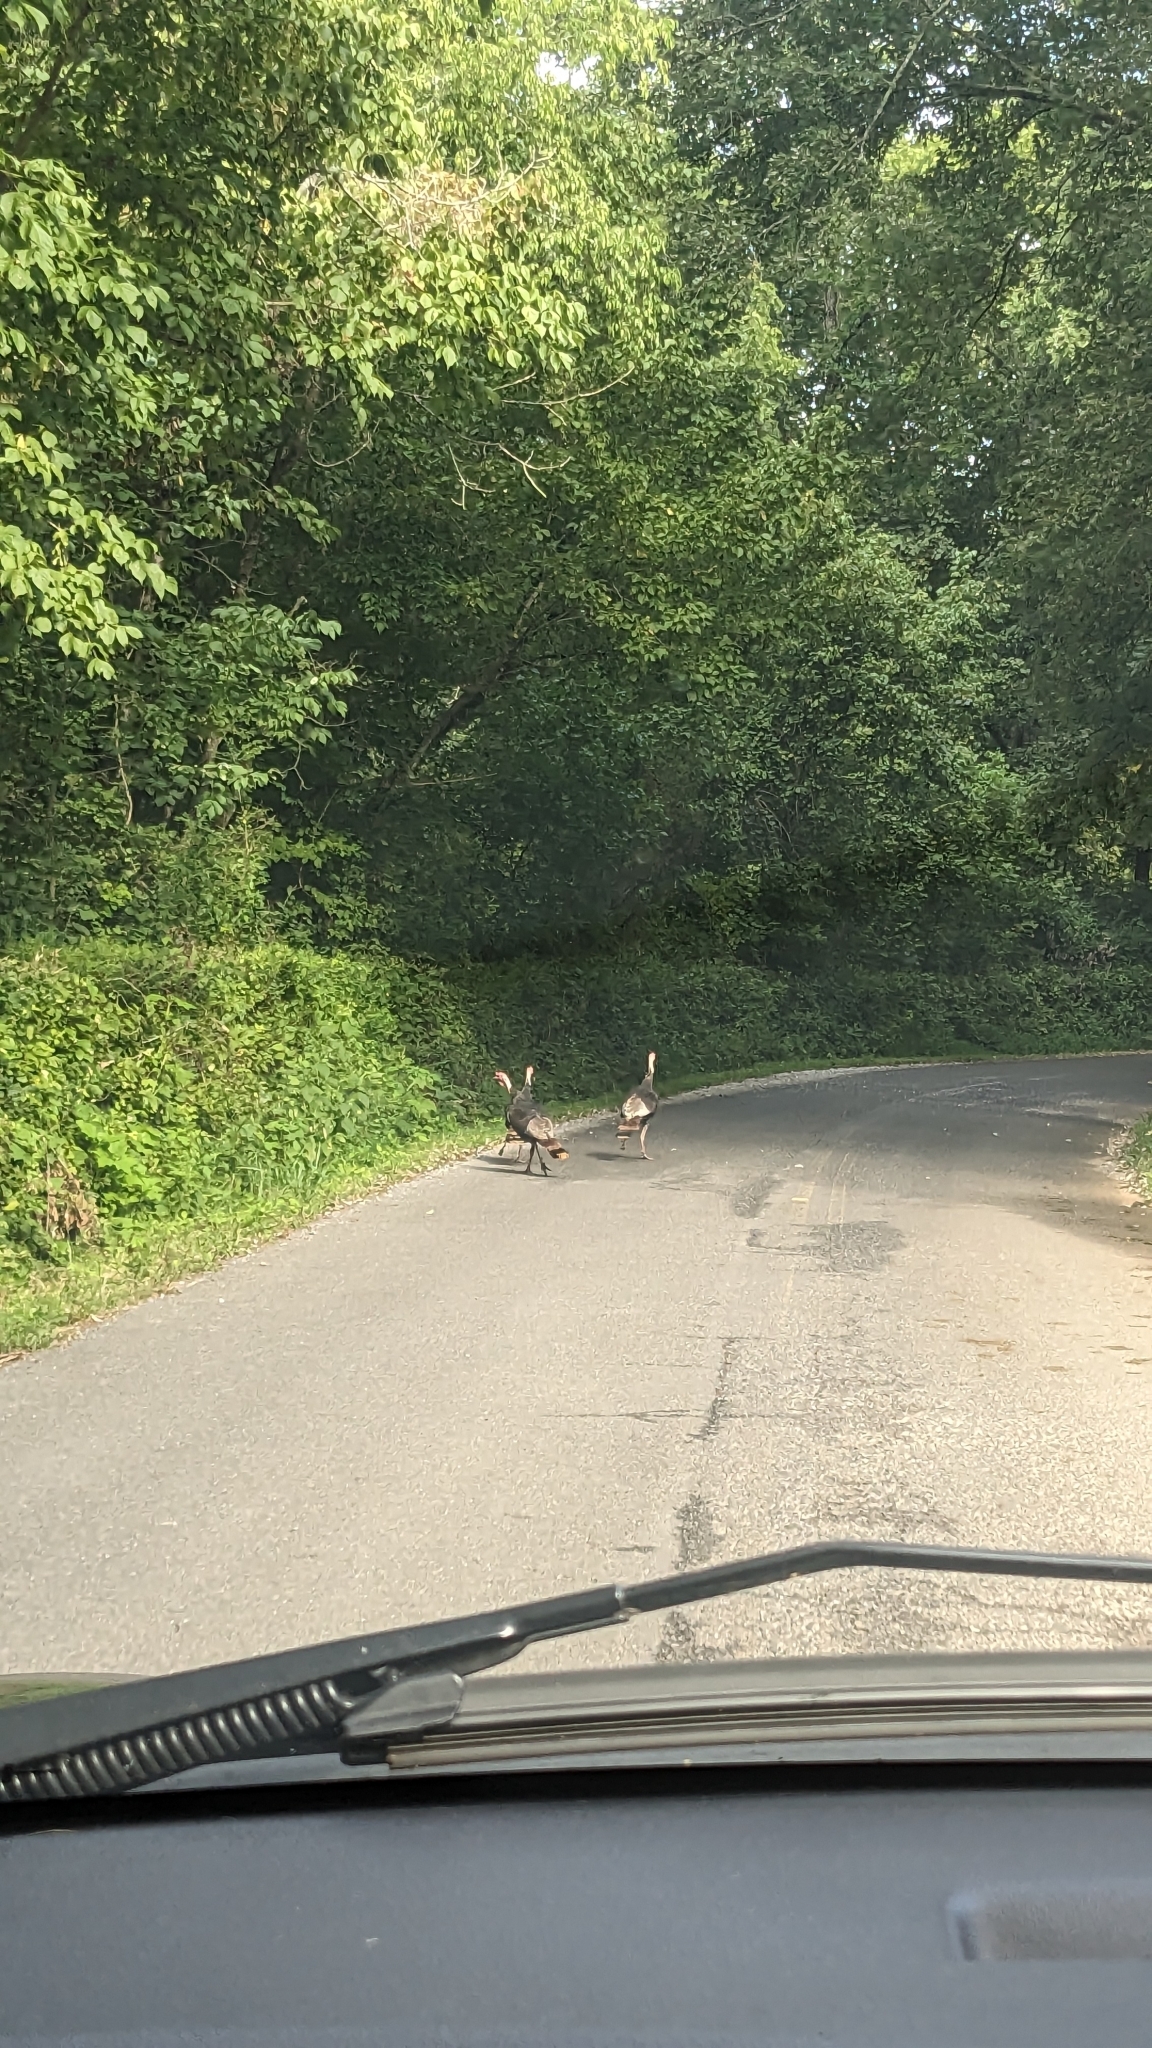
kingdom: Animalia
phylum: Chordata
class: Aves
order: Galliformes
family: Phasianidae
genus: Meleagris
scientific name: Meleagris gallopavo
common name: Wild turkey
